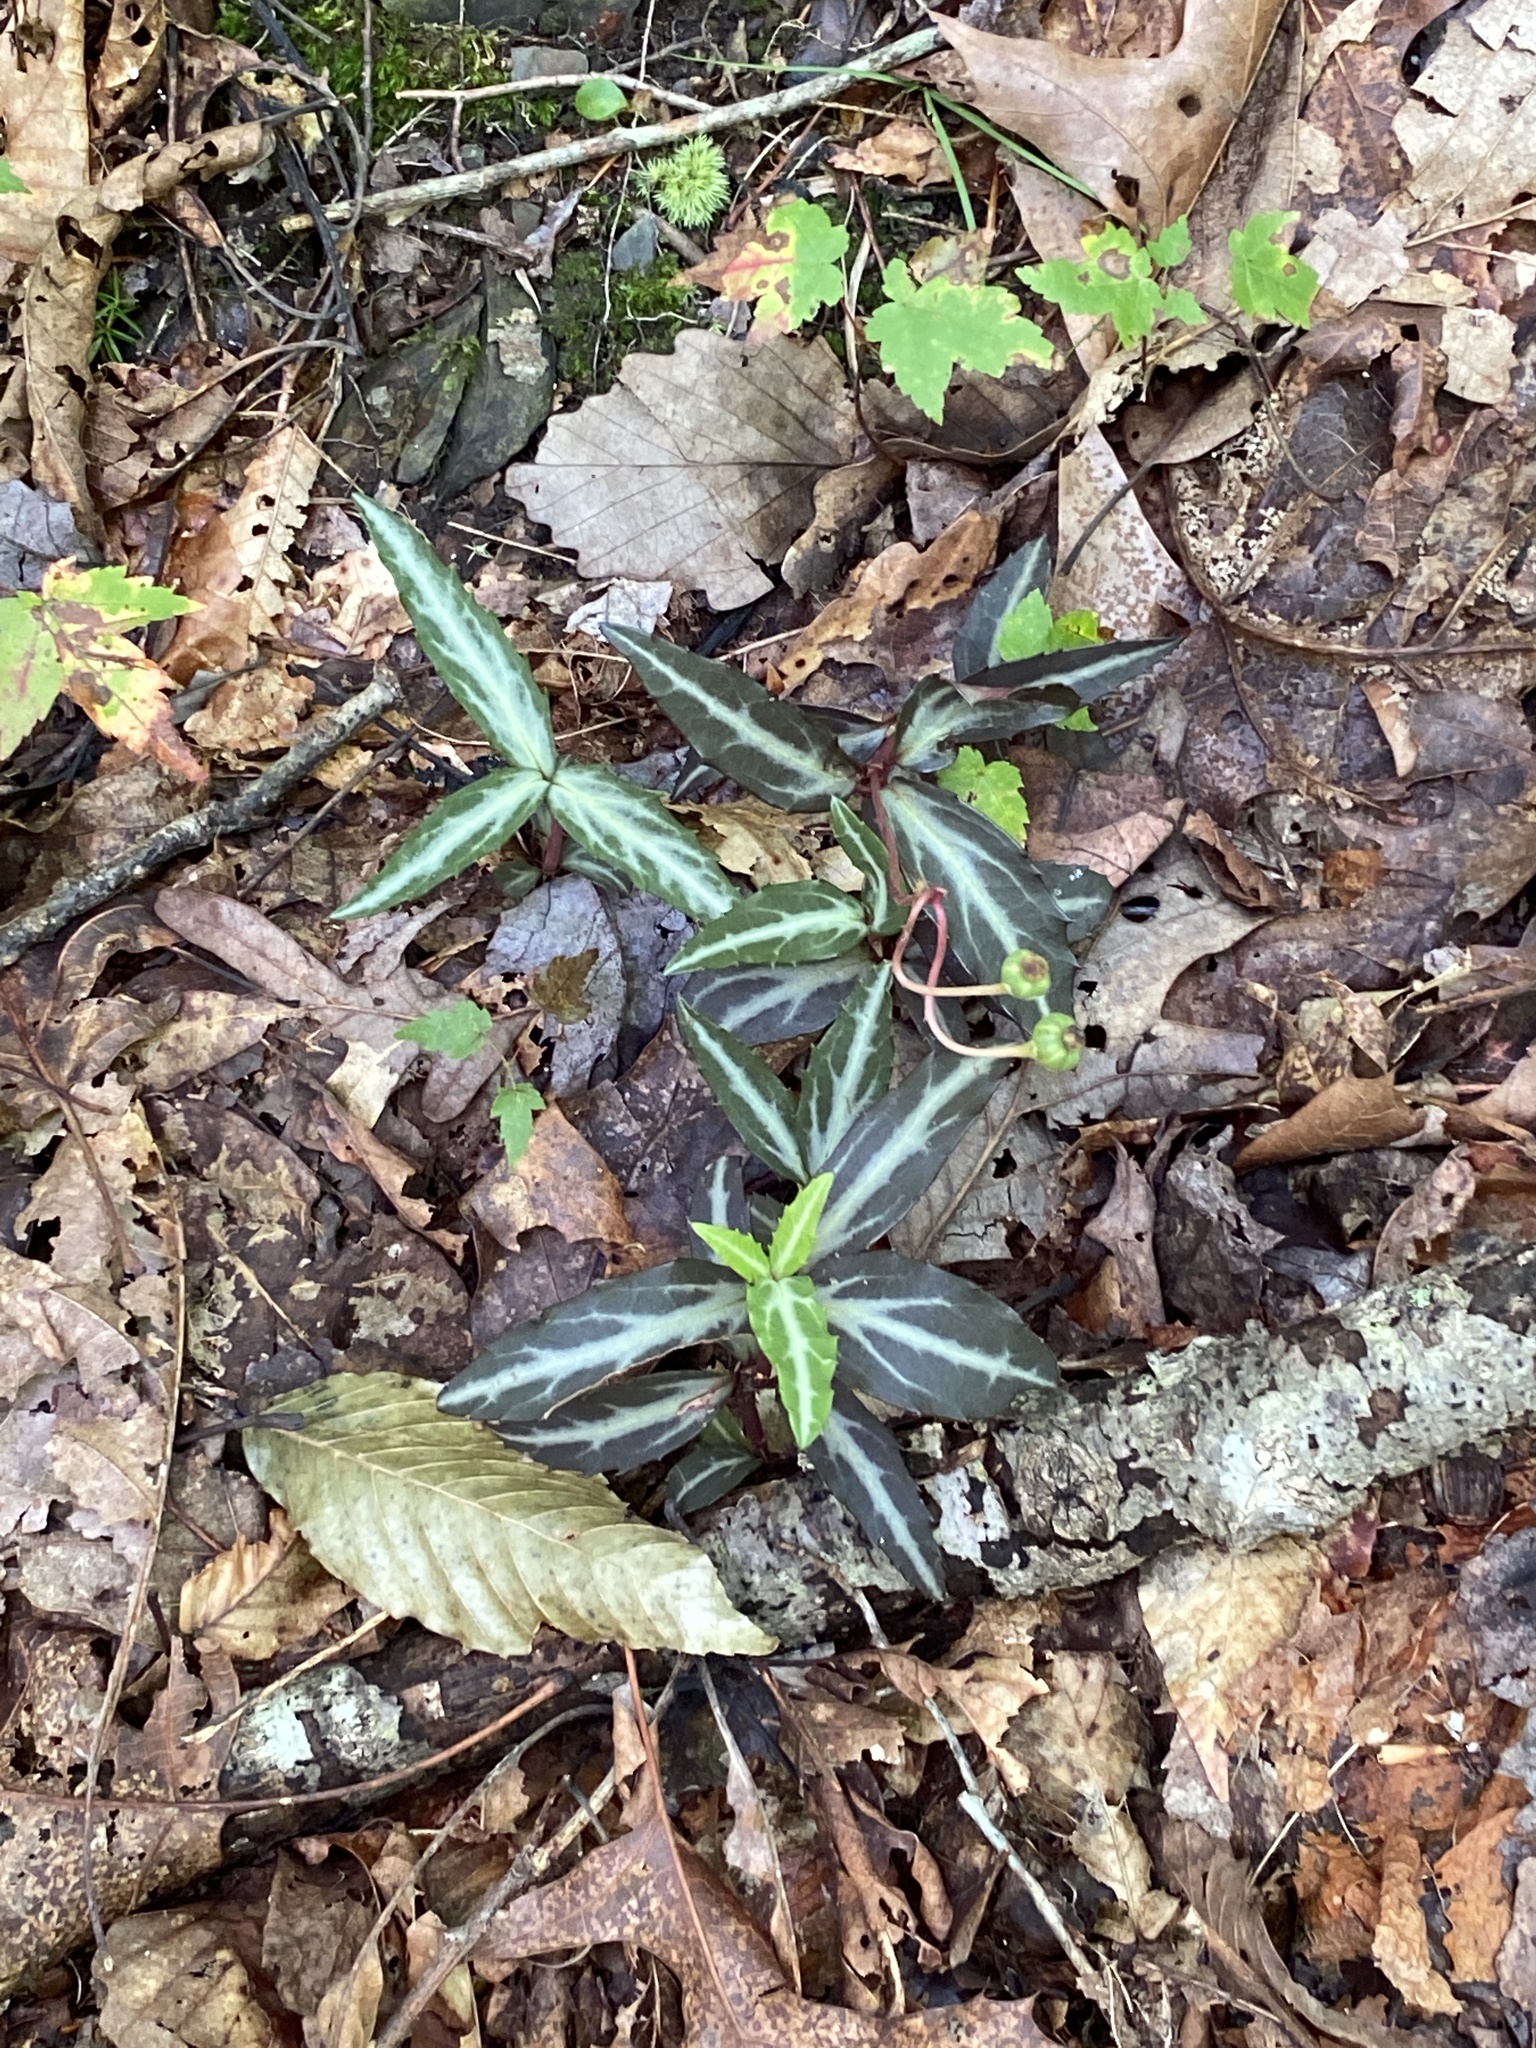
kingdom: Plantae
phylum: Tracheophyta
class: Magnoliopsida
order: Ericales
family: Ericaceae
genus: Chimaphila
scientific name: Chimaphila maculata
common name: Spotted pipsissewa
